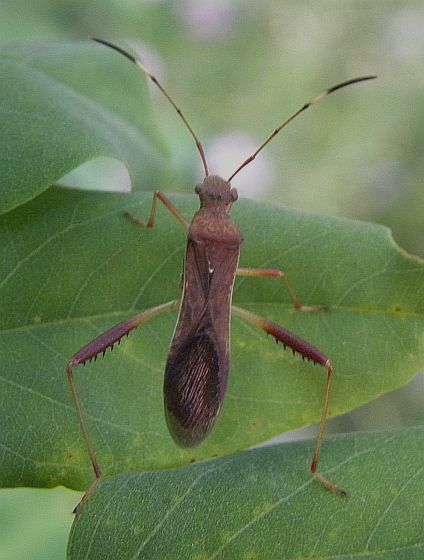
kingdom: Animalia
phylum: Arthropoda
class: Insecta
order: Hemiptera
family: Alydidae
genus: Megalotomus
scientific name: Megalotomus quinquespinosus
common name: Lupine bug
